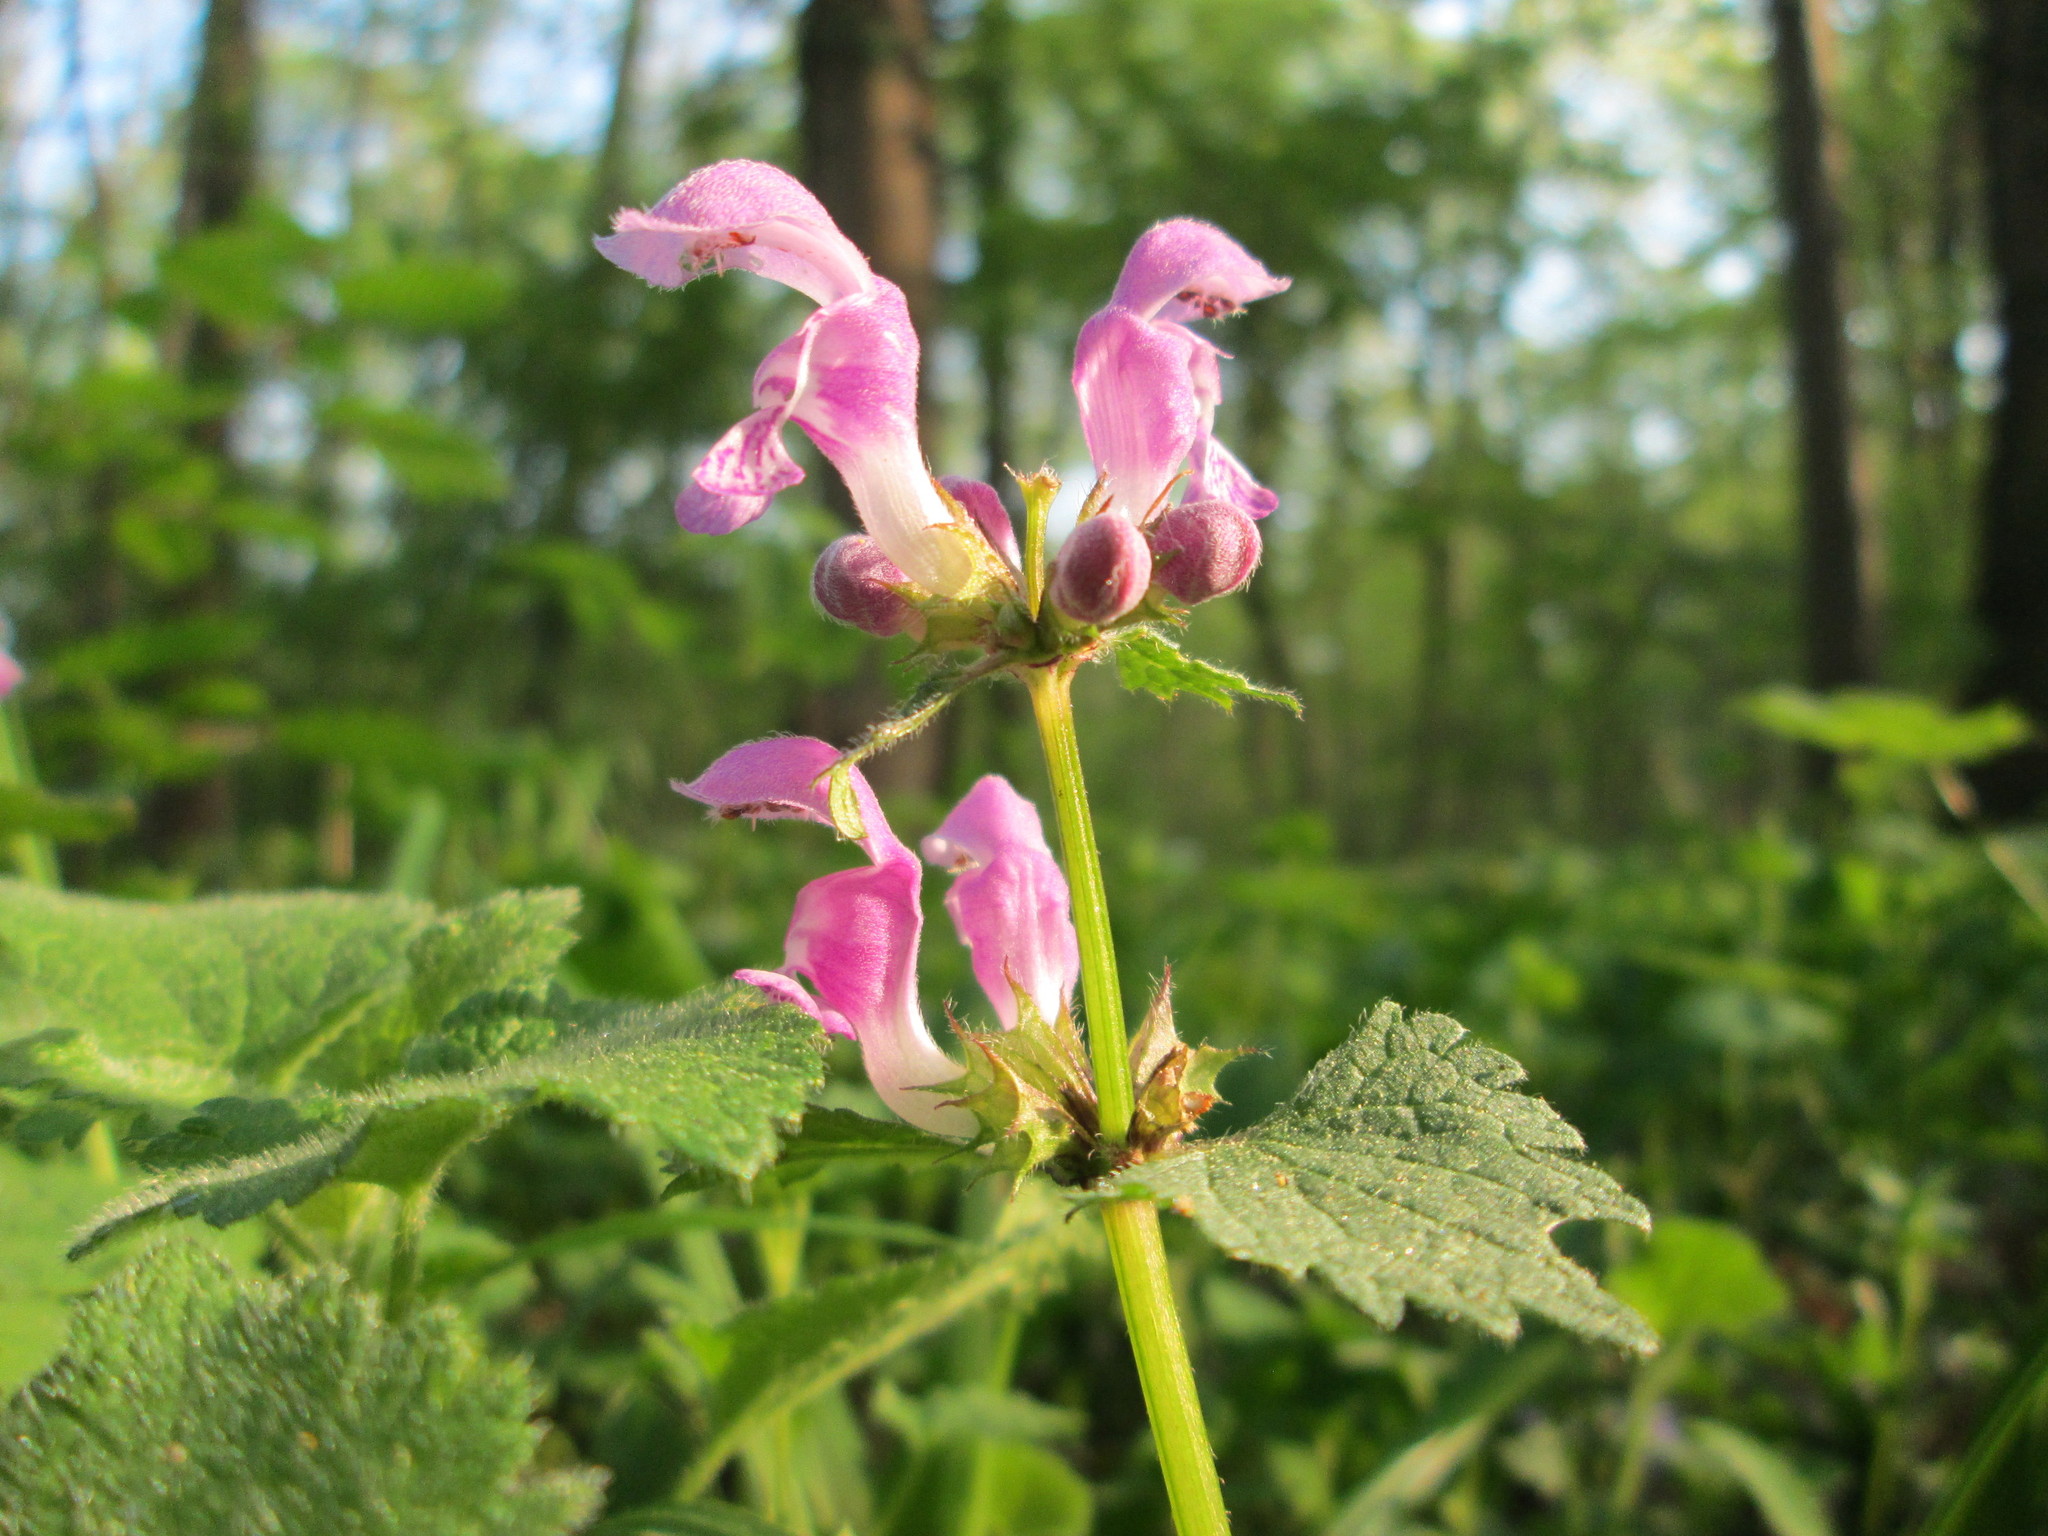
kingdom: Plantae
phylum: Tracheophyta
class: Magnoliopsida
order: Lamiales
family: Lamiaceae
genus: Lamium
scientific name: Lamium maculatum
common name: Spotted dead-nettle
